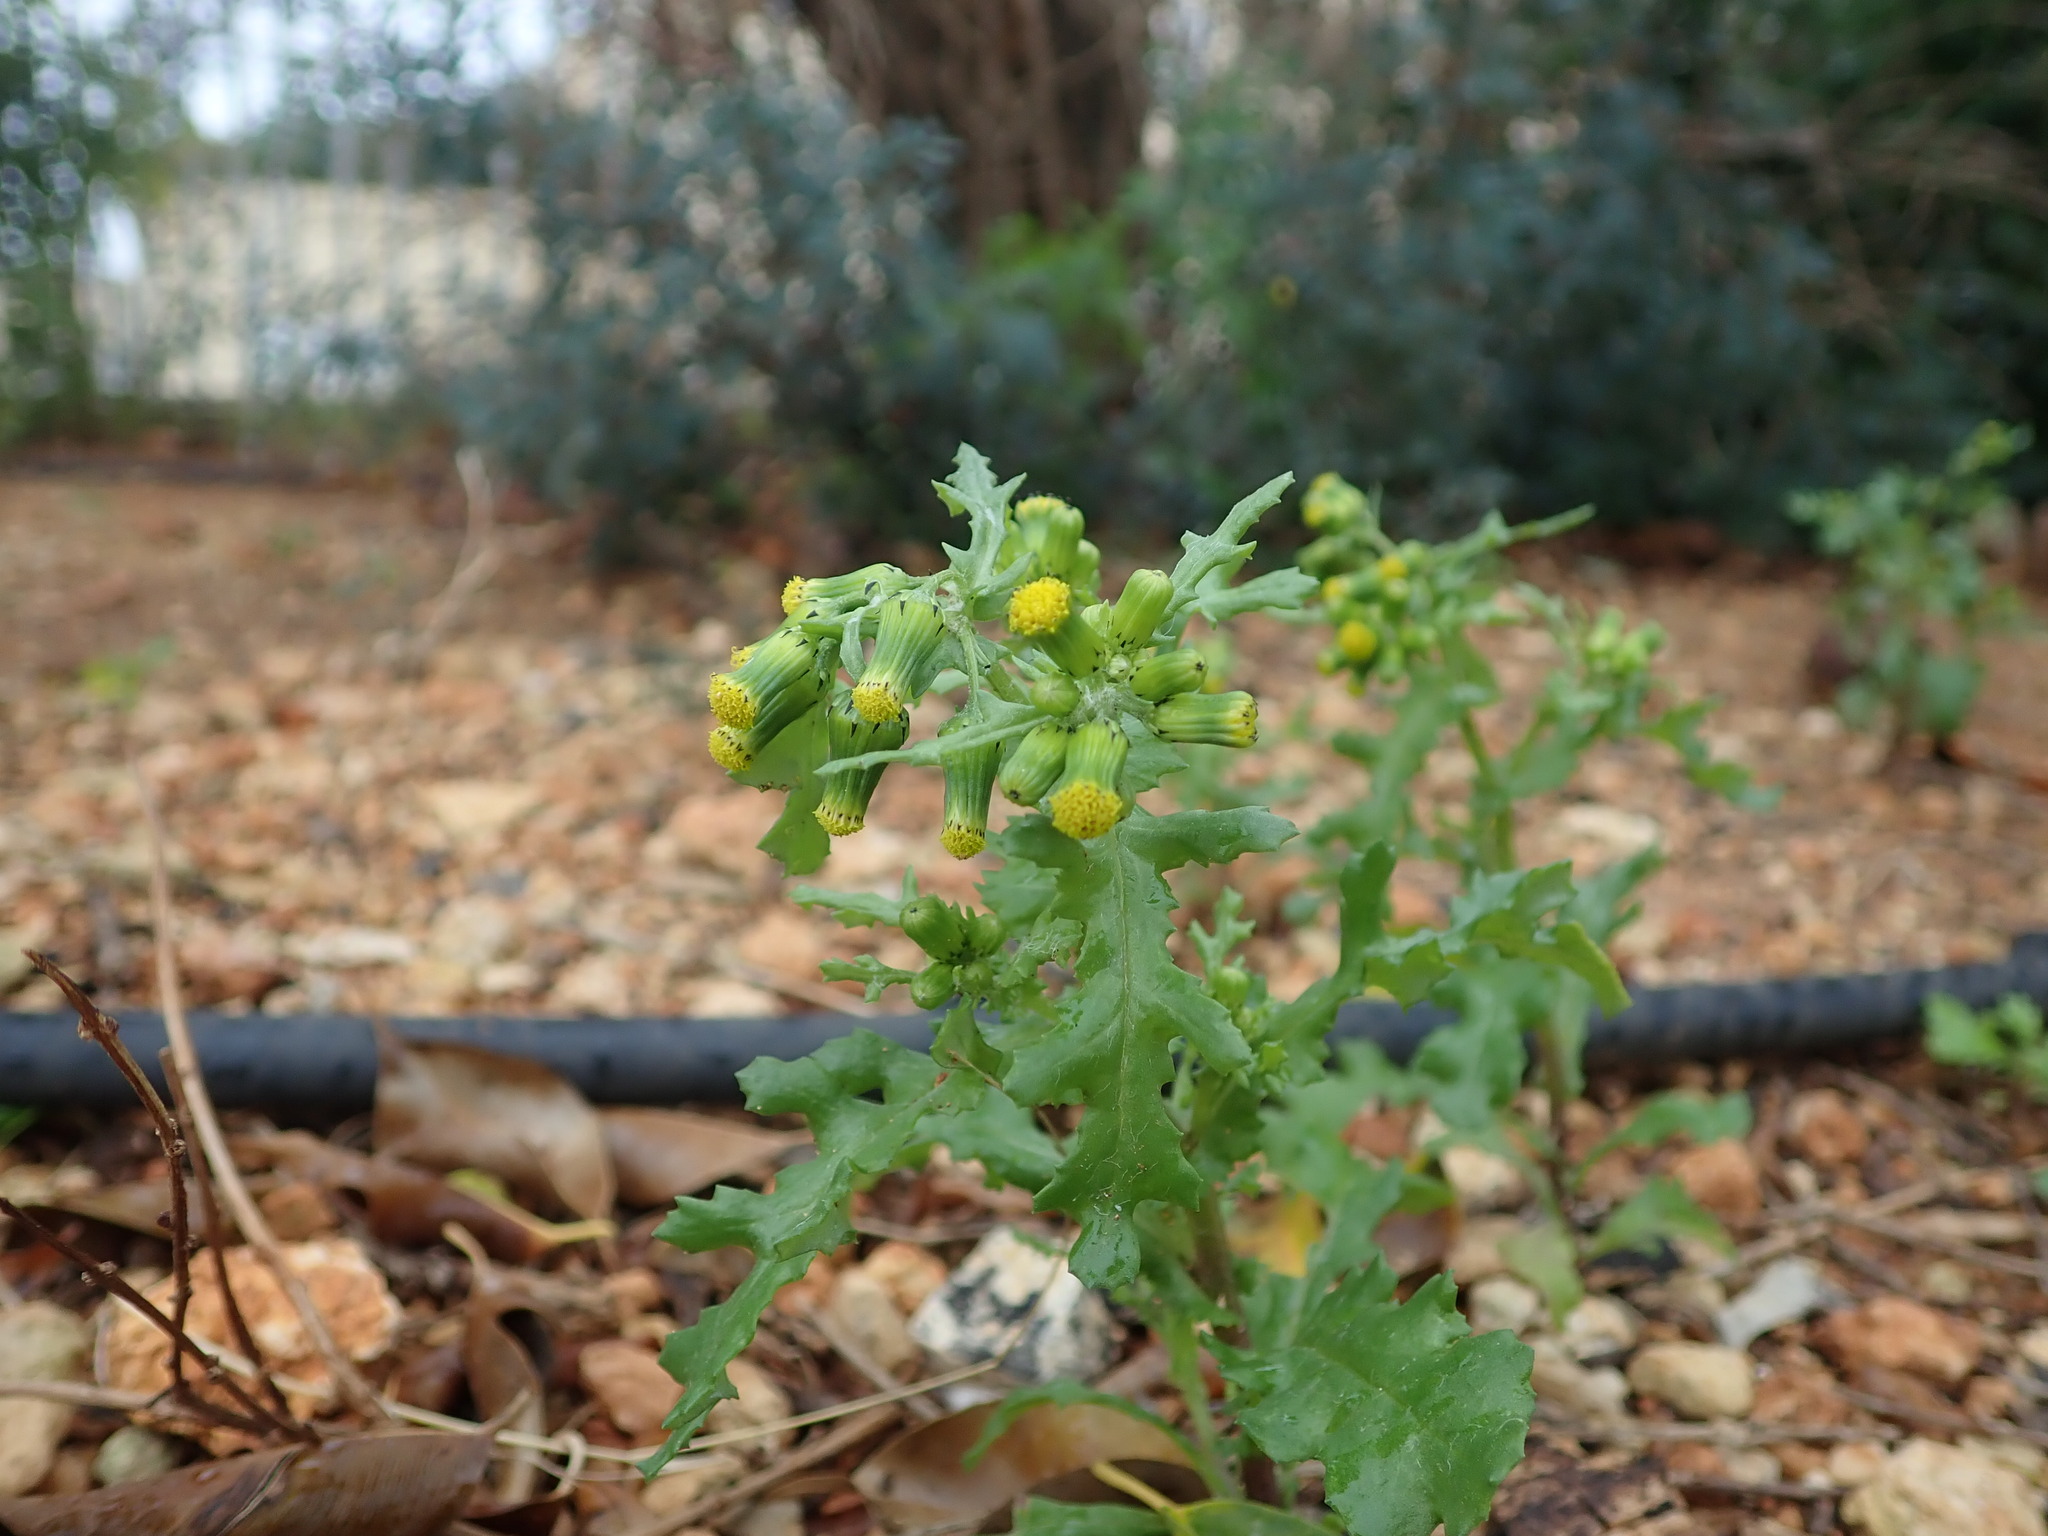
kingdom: Plantae
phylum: Tracheophyta
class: Magnoliopsida
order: Asterales
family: Asteraceae
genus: Senecio
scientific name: Senecio vulgaris
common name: Old-man-in-the-spring
